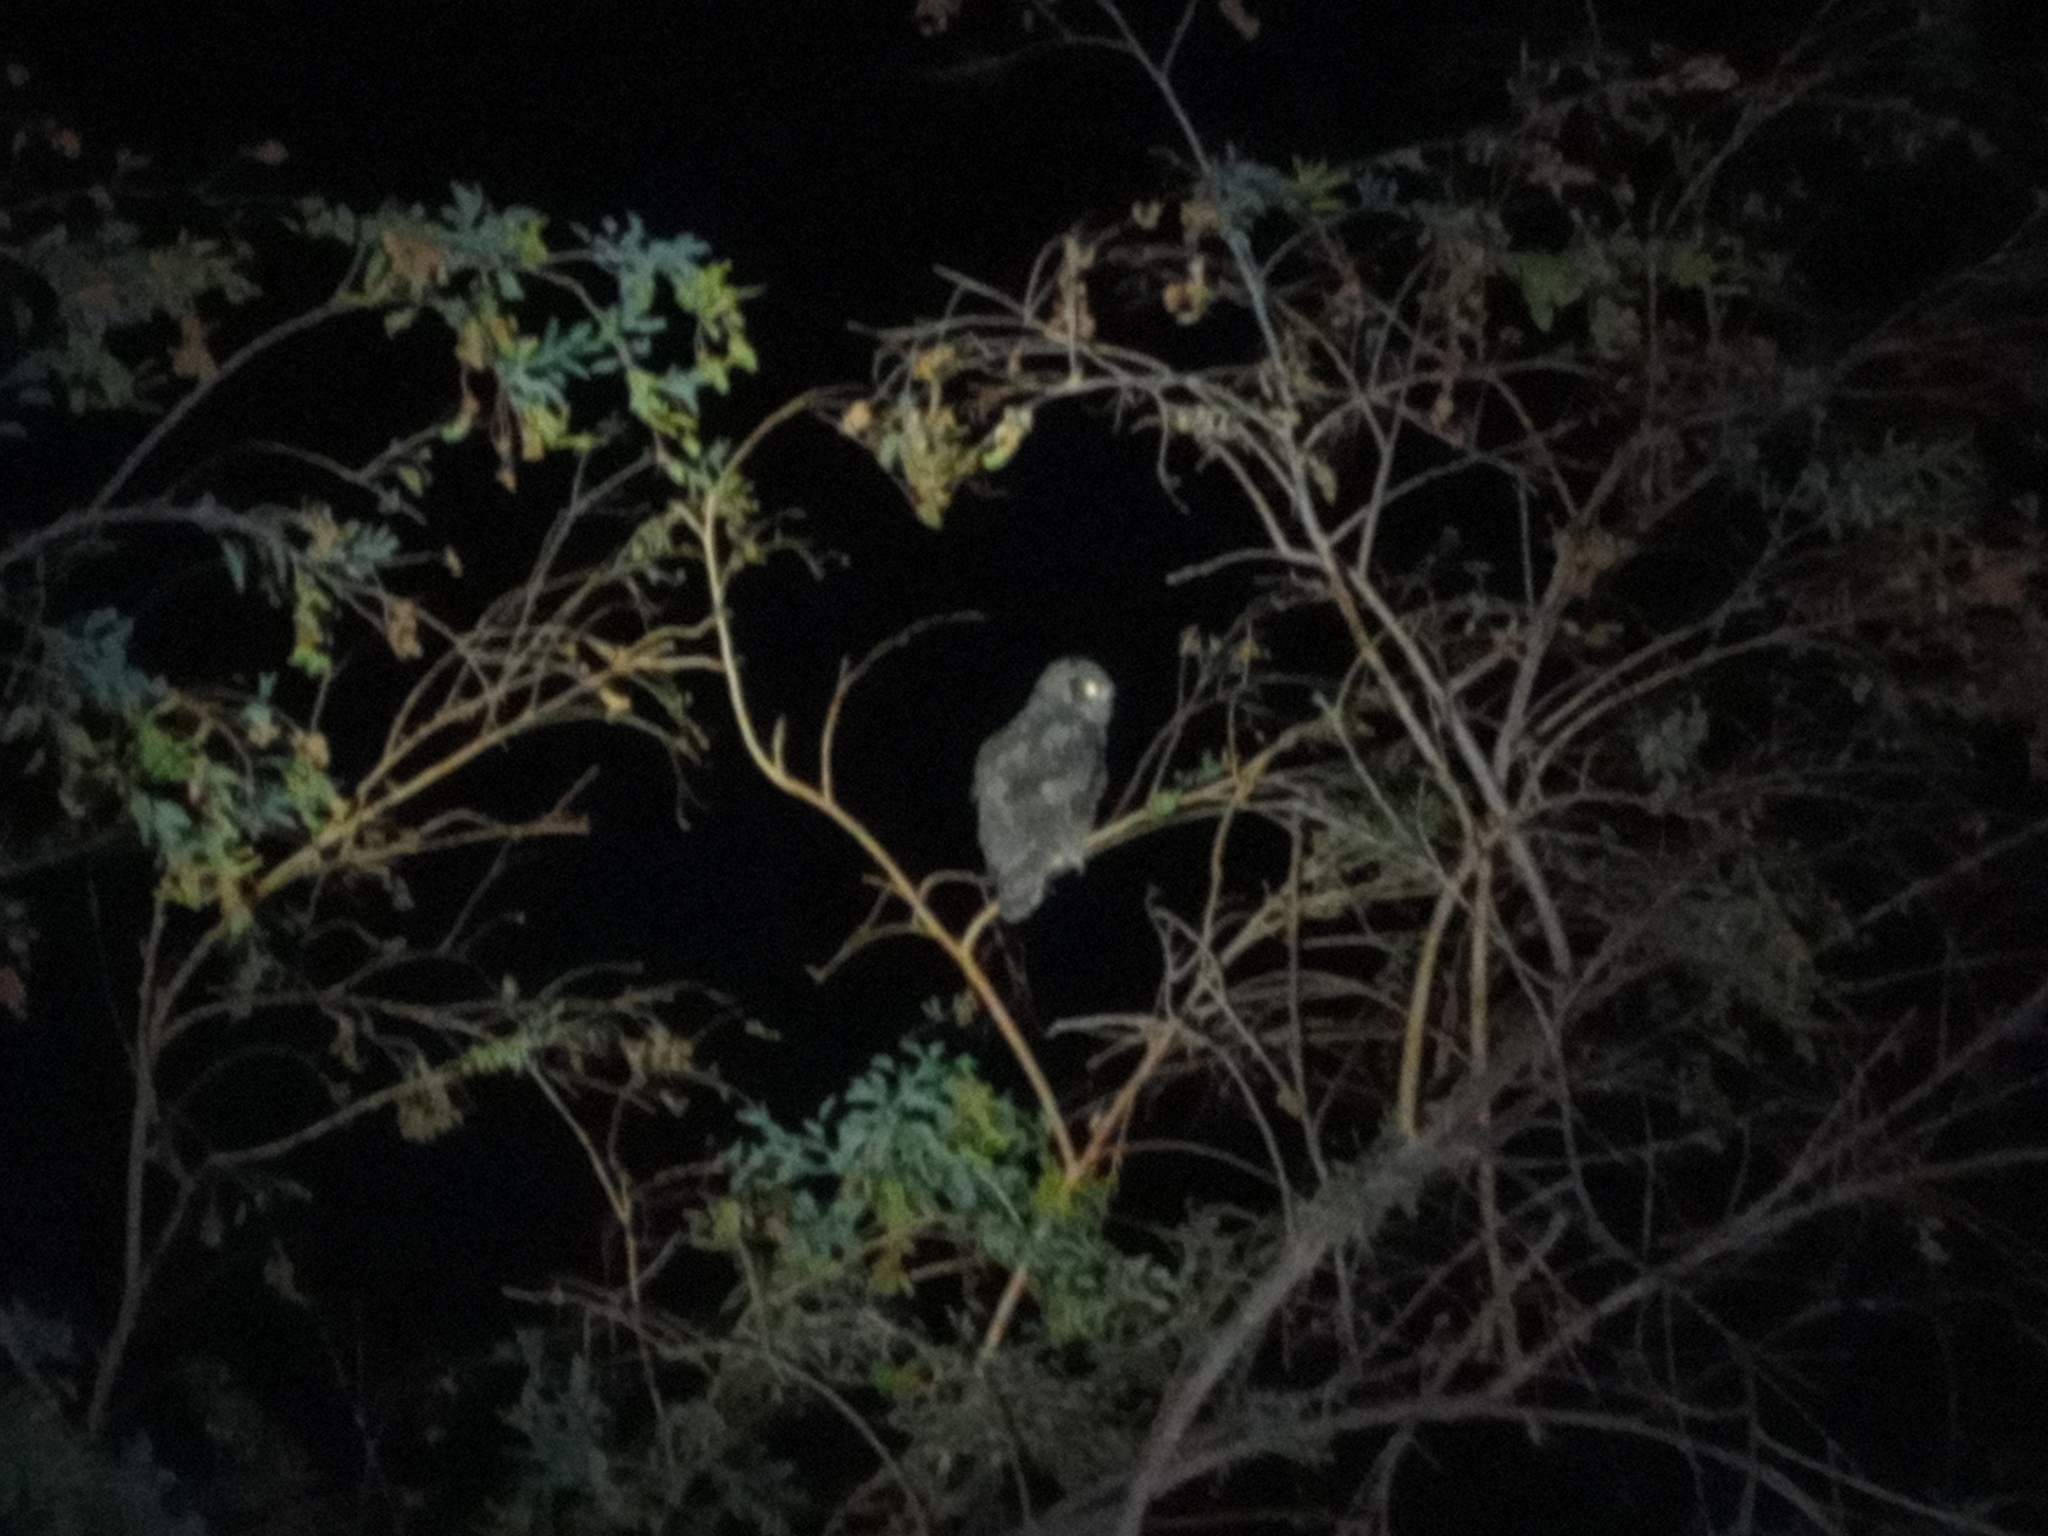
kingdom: Animalia
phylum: Chordata
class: Aves
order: Strigiformes
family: Strigidae
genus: Bubo
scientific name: Bubo virginianus
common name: Great horned owl
